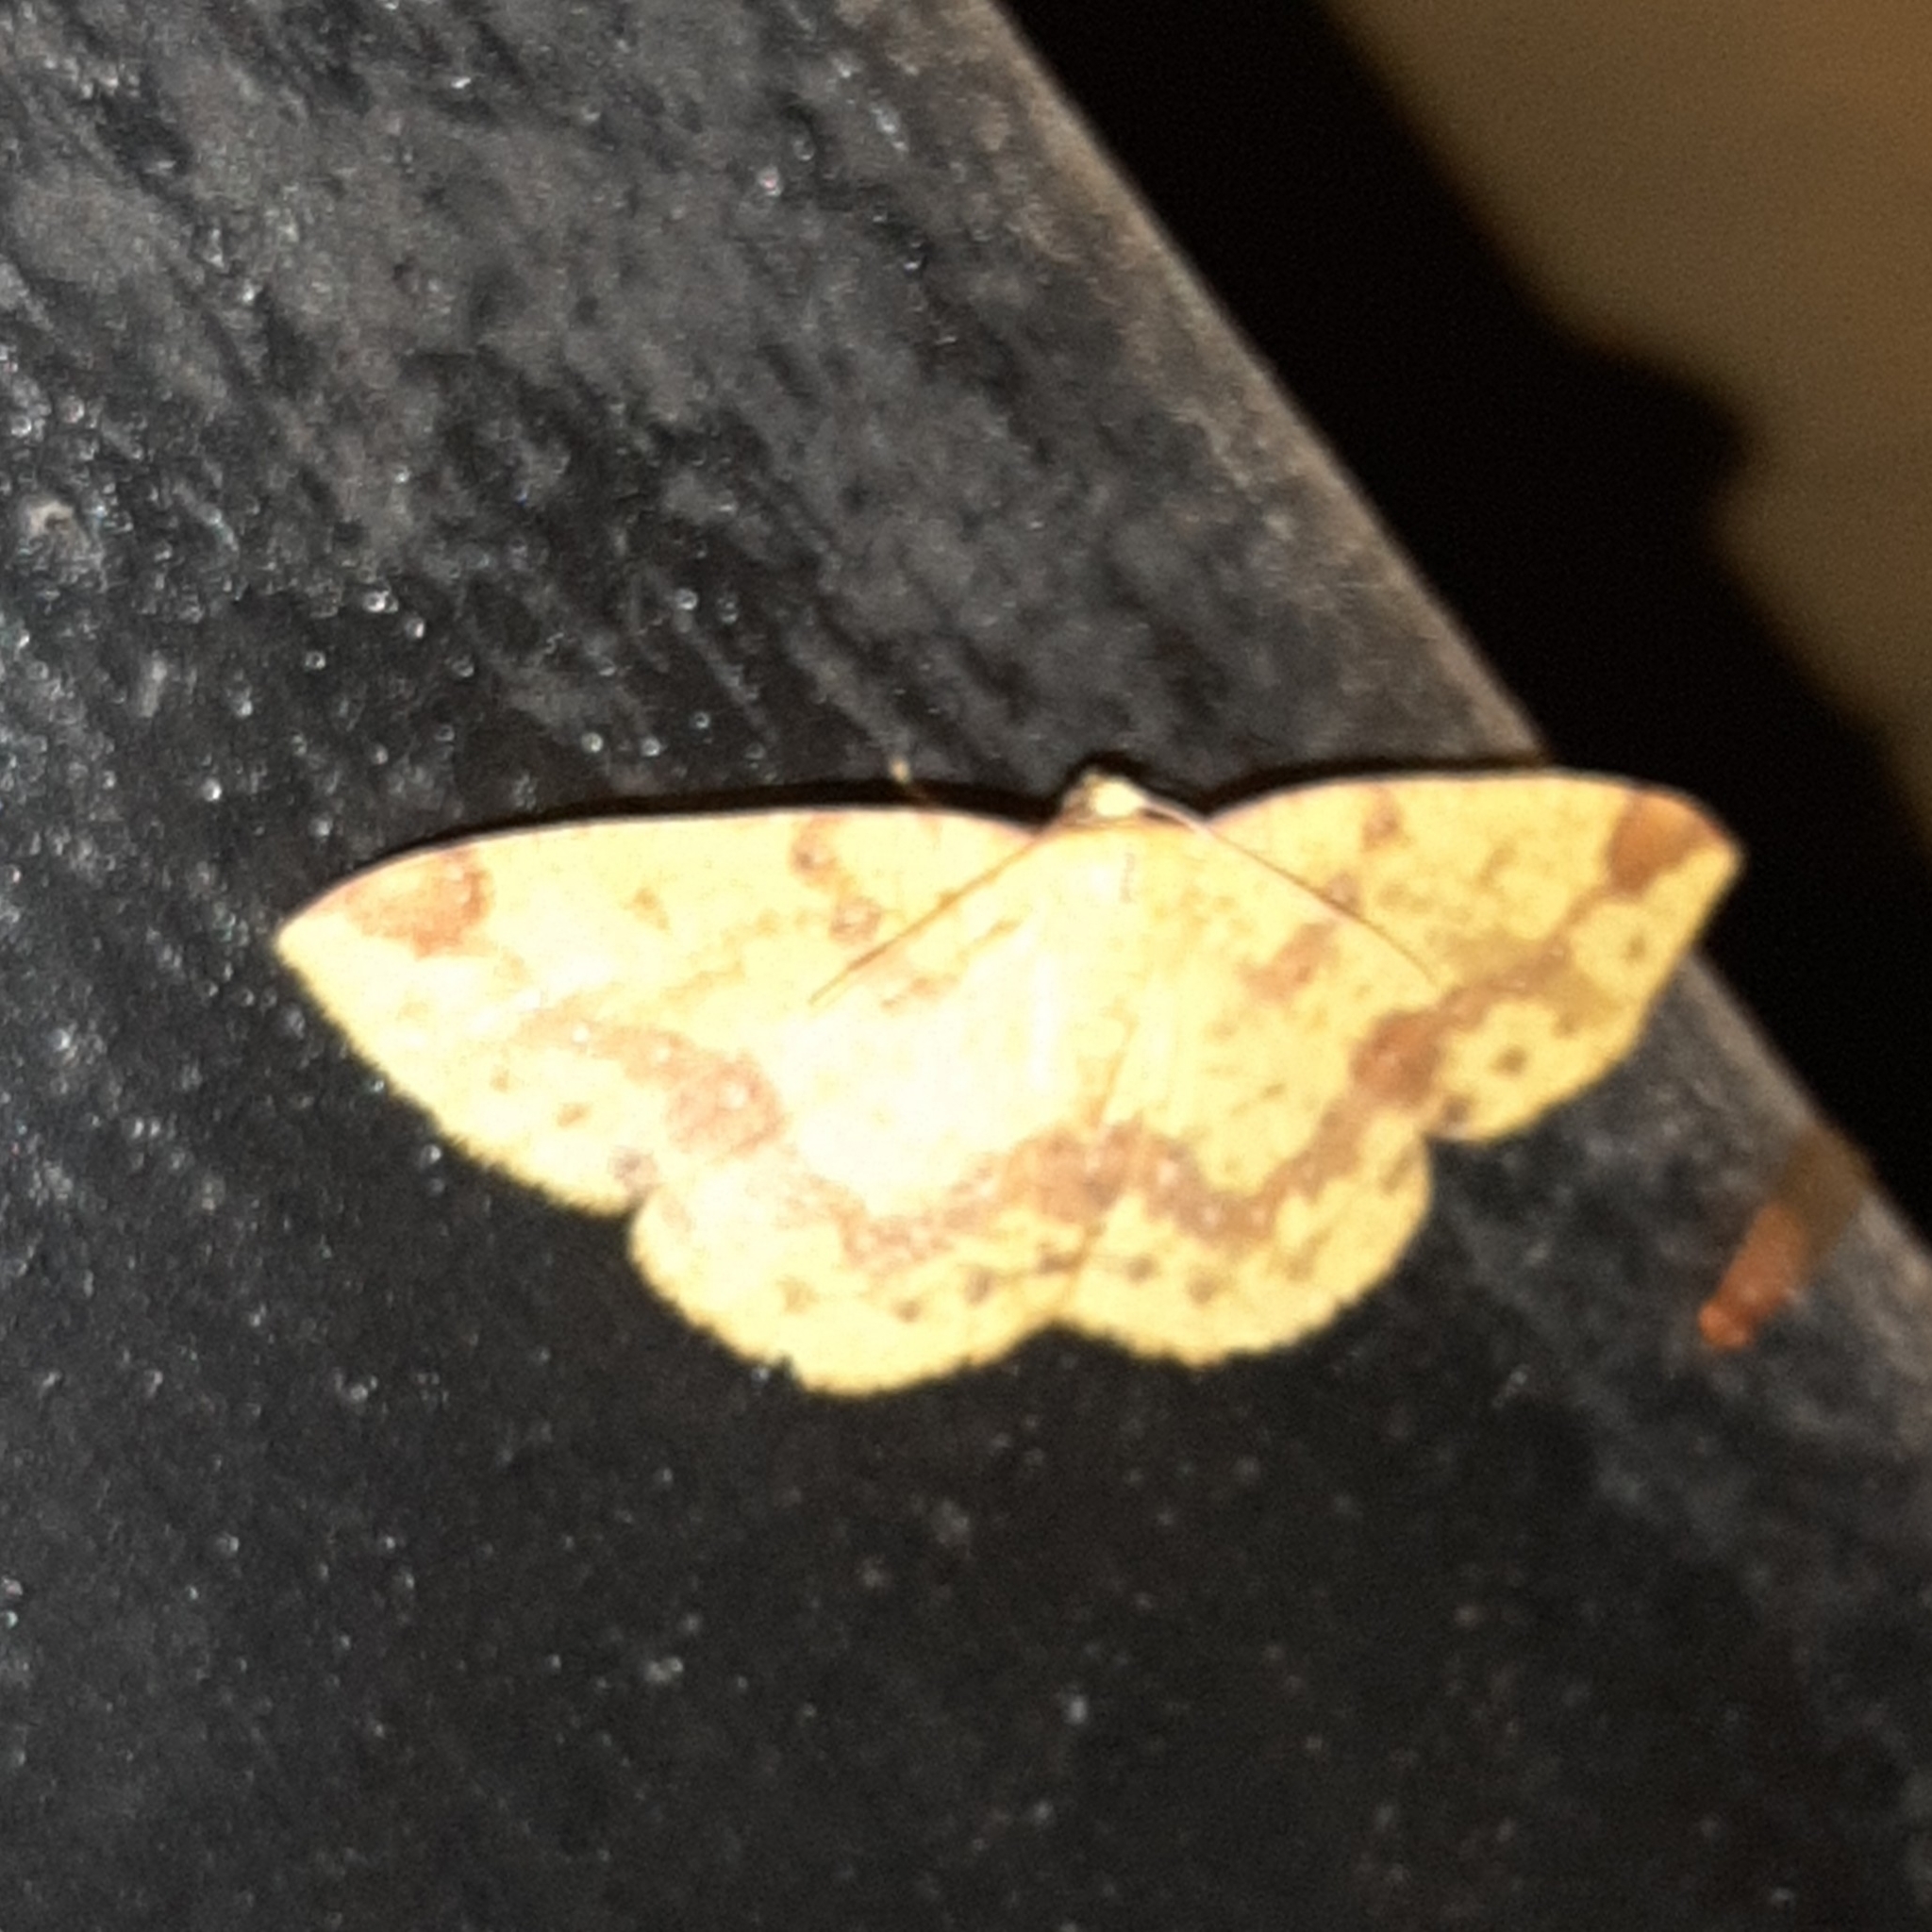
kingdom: Animalia
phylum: Arthropoda
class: Insecta
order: Lepidoptera
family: Geometridae
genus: Periclina
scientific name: Periclina apricaria
